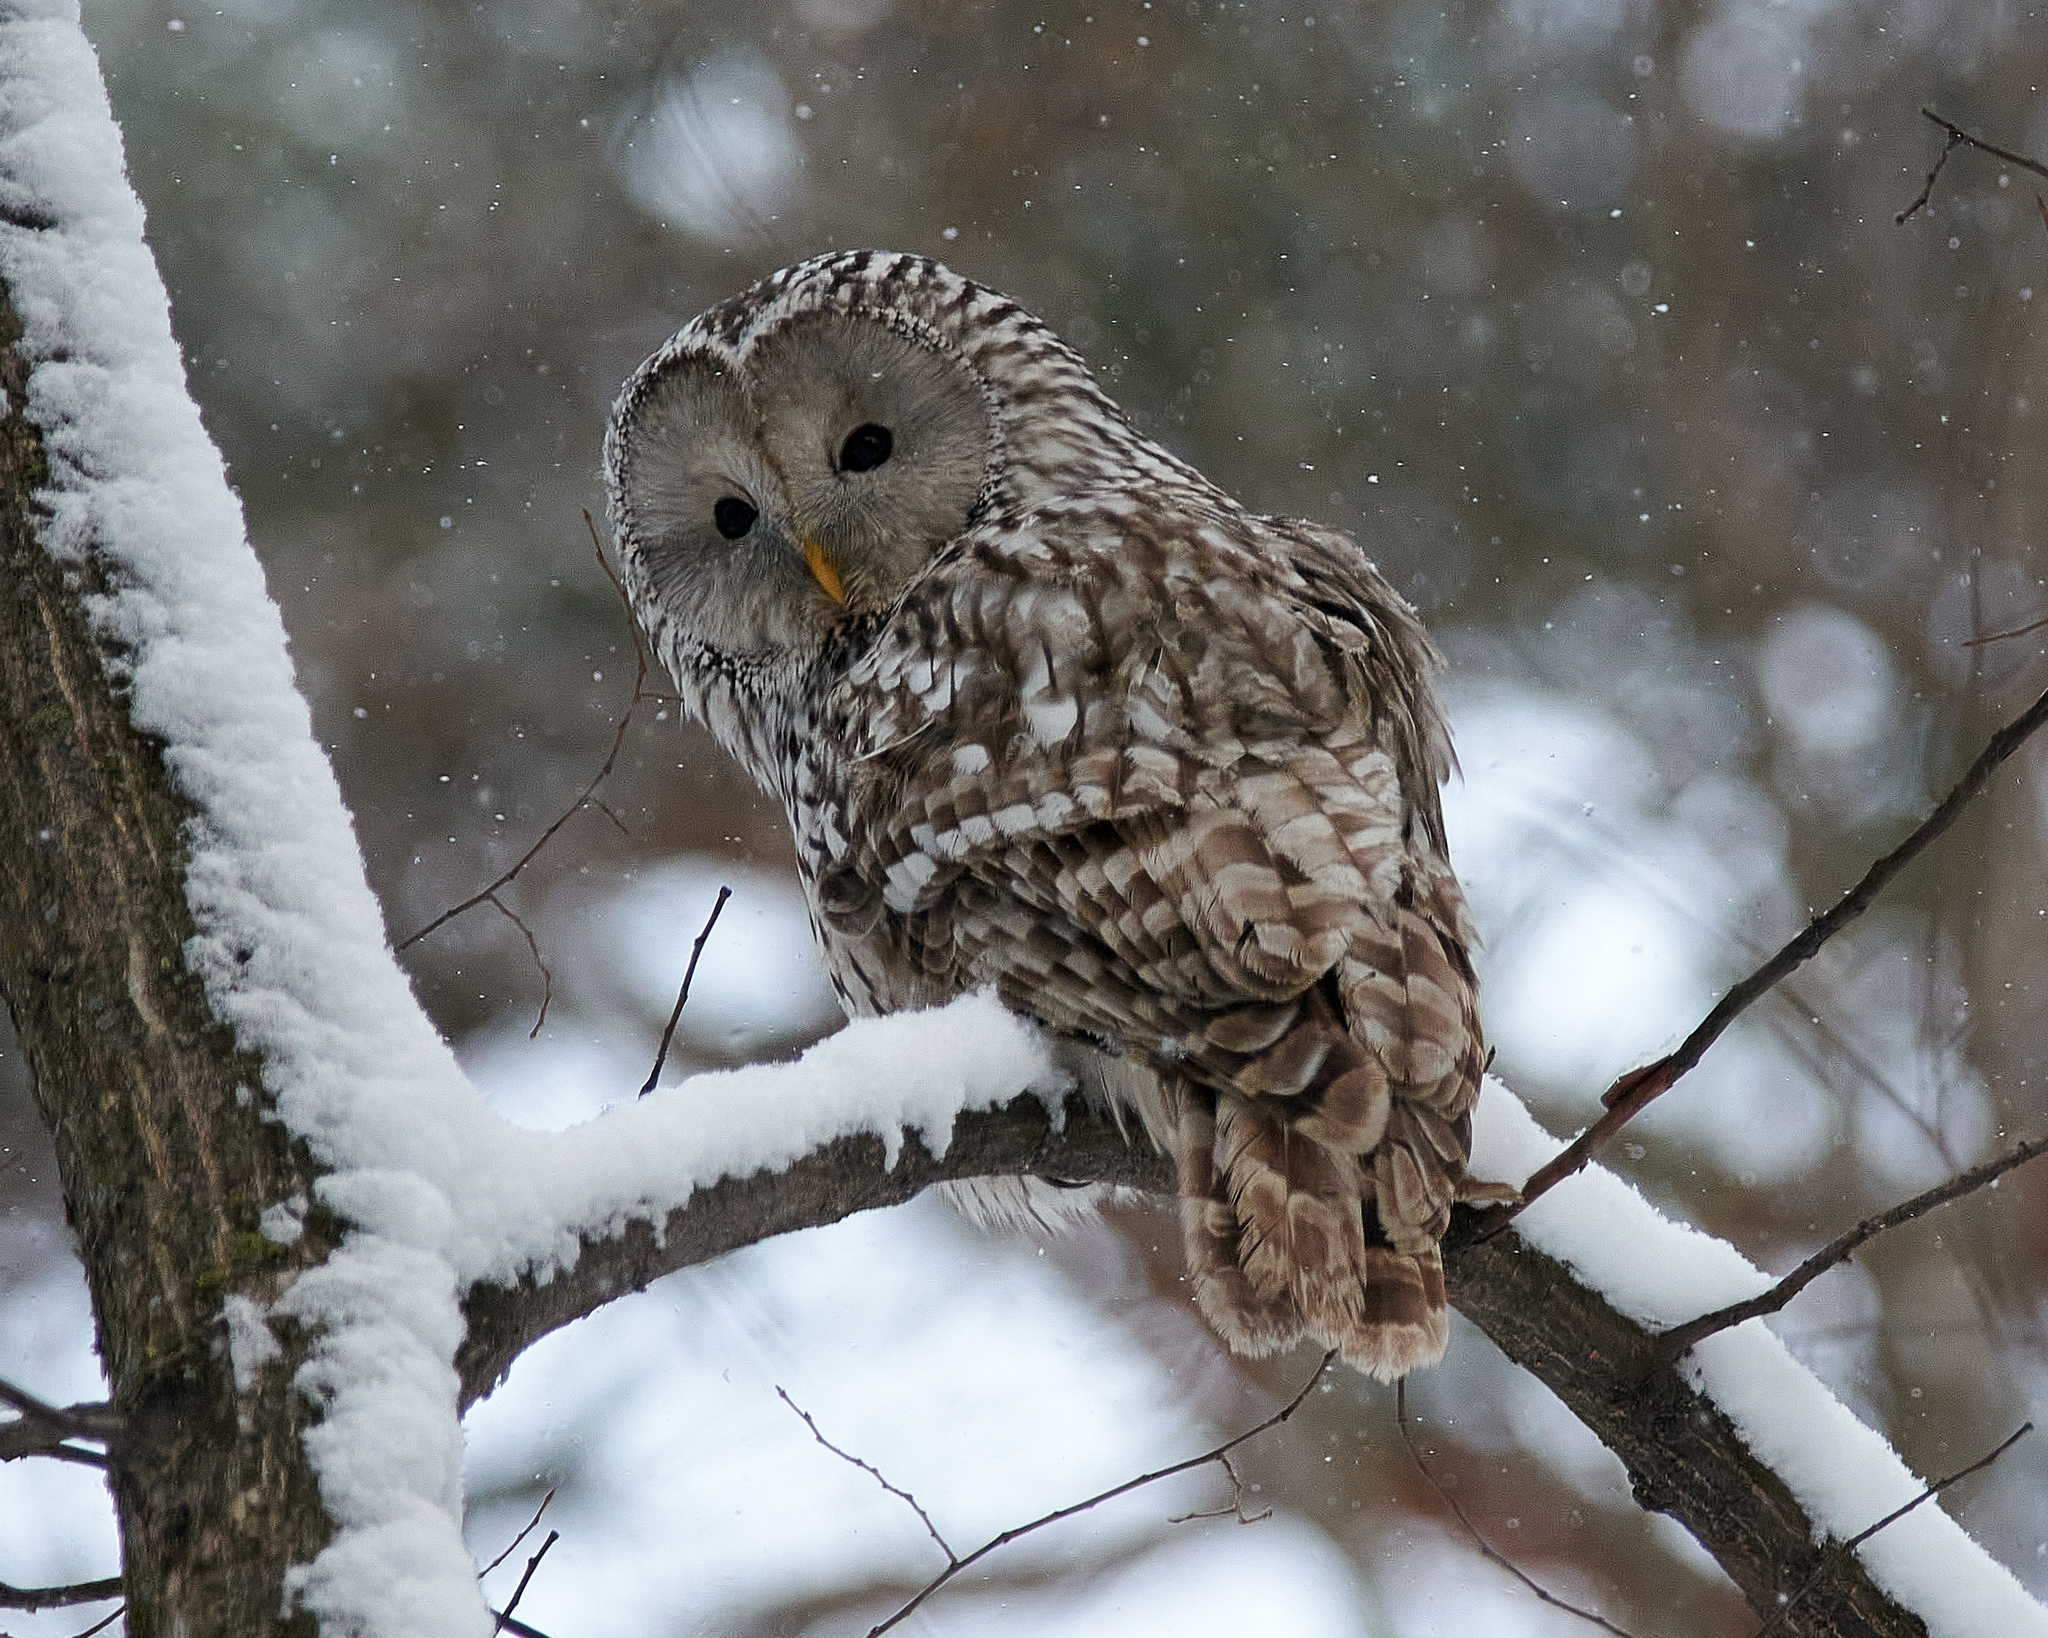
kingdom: Animalia
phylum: Chordata
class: Aves
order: Strigiformes
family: Strigidae
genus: Strix
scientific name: Strix uralensis
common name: Ural owl
